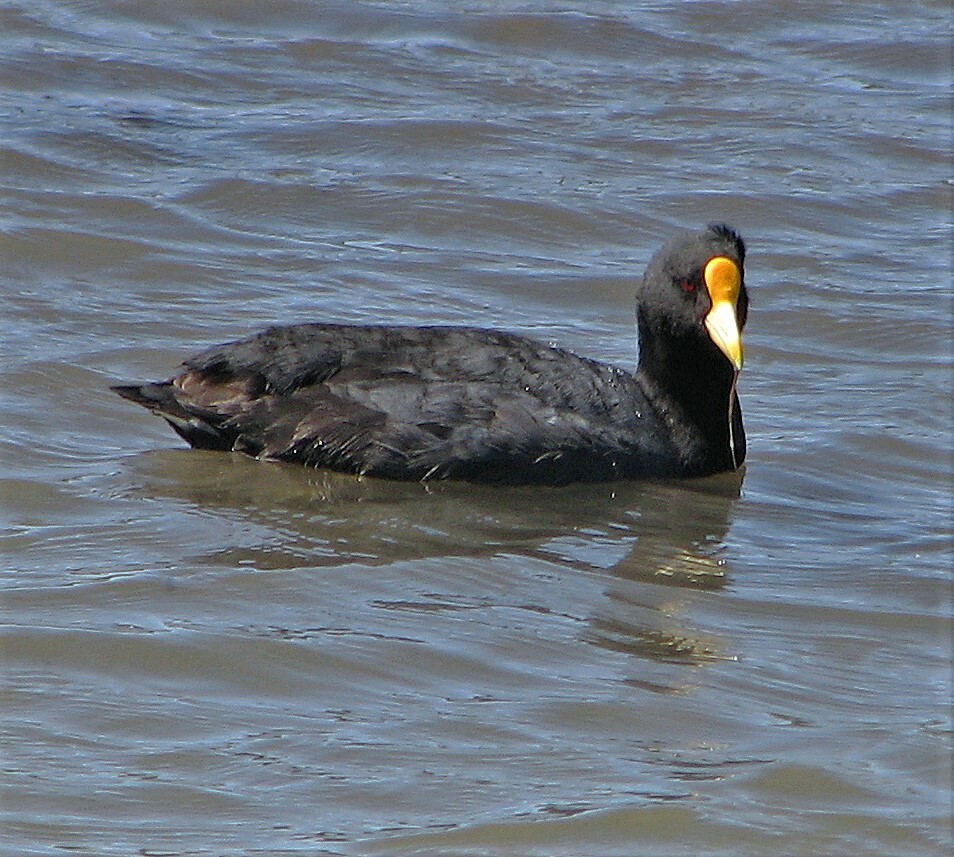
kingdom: Animalia
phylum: Chordata
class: Aves
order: Gruiformes
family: Rallidae
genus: Fulica
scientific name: Fulica leucoptera
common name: White-winged coot
